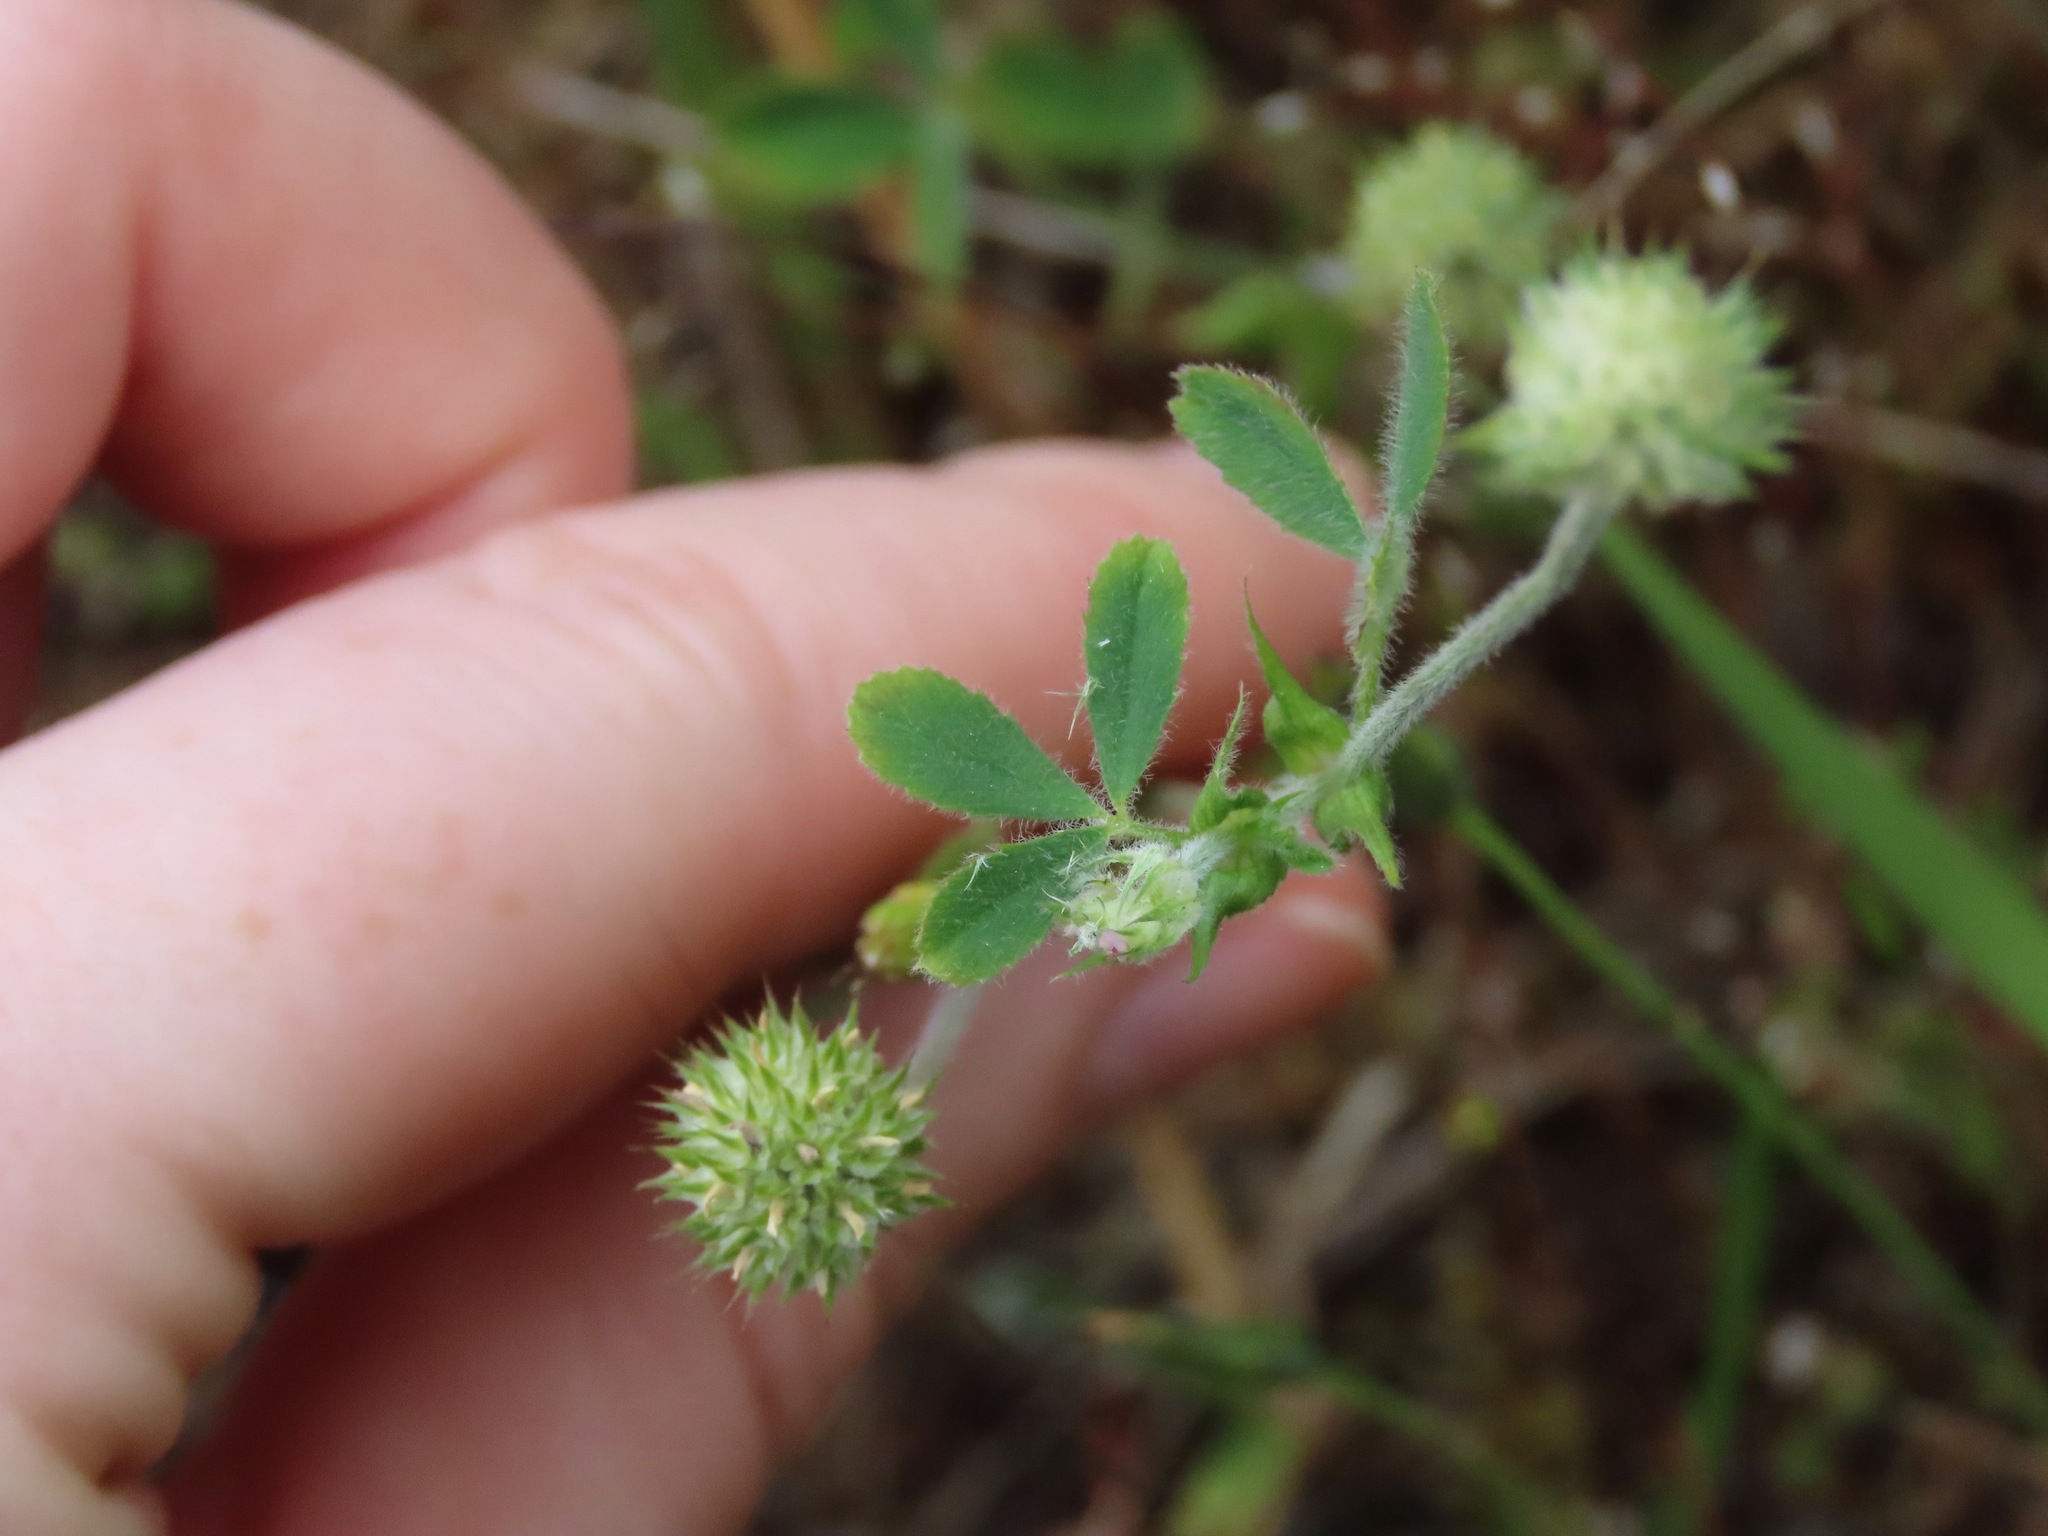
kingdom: Plantae
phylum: Tracheophyta
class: Magnoliopsida
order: Fabales
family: Fabaceae
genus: Trifolium
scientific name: Trifolium microcephalum
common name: Maiden clover
